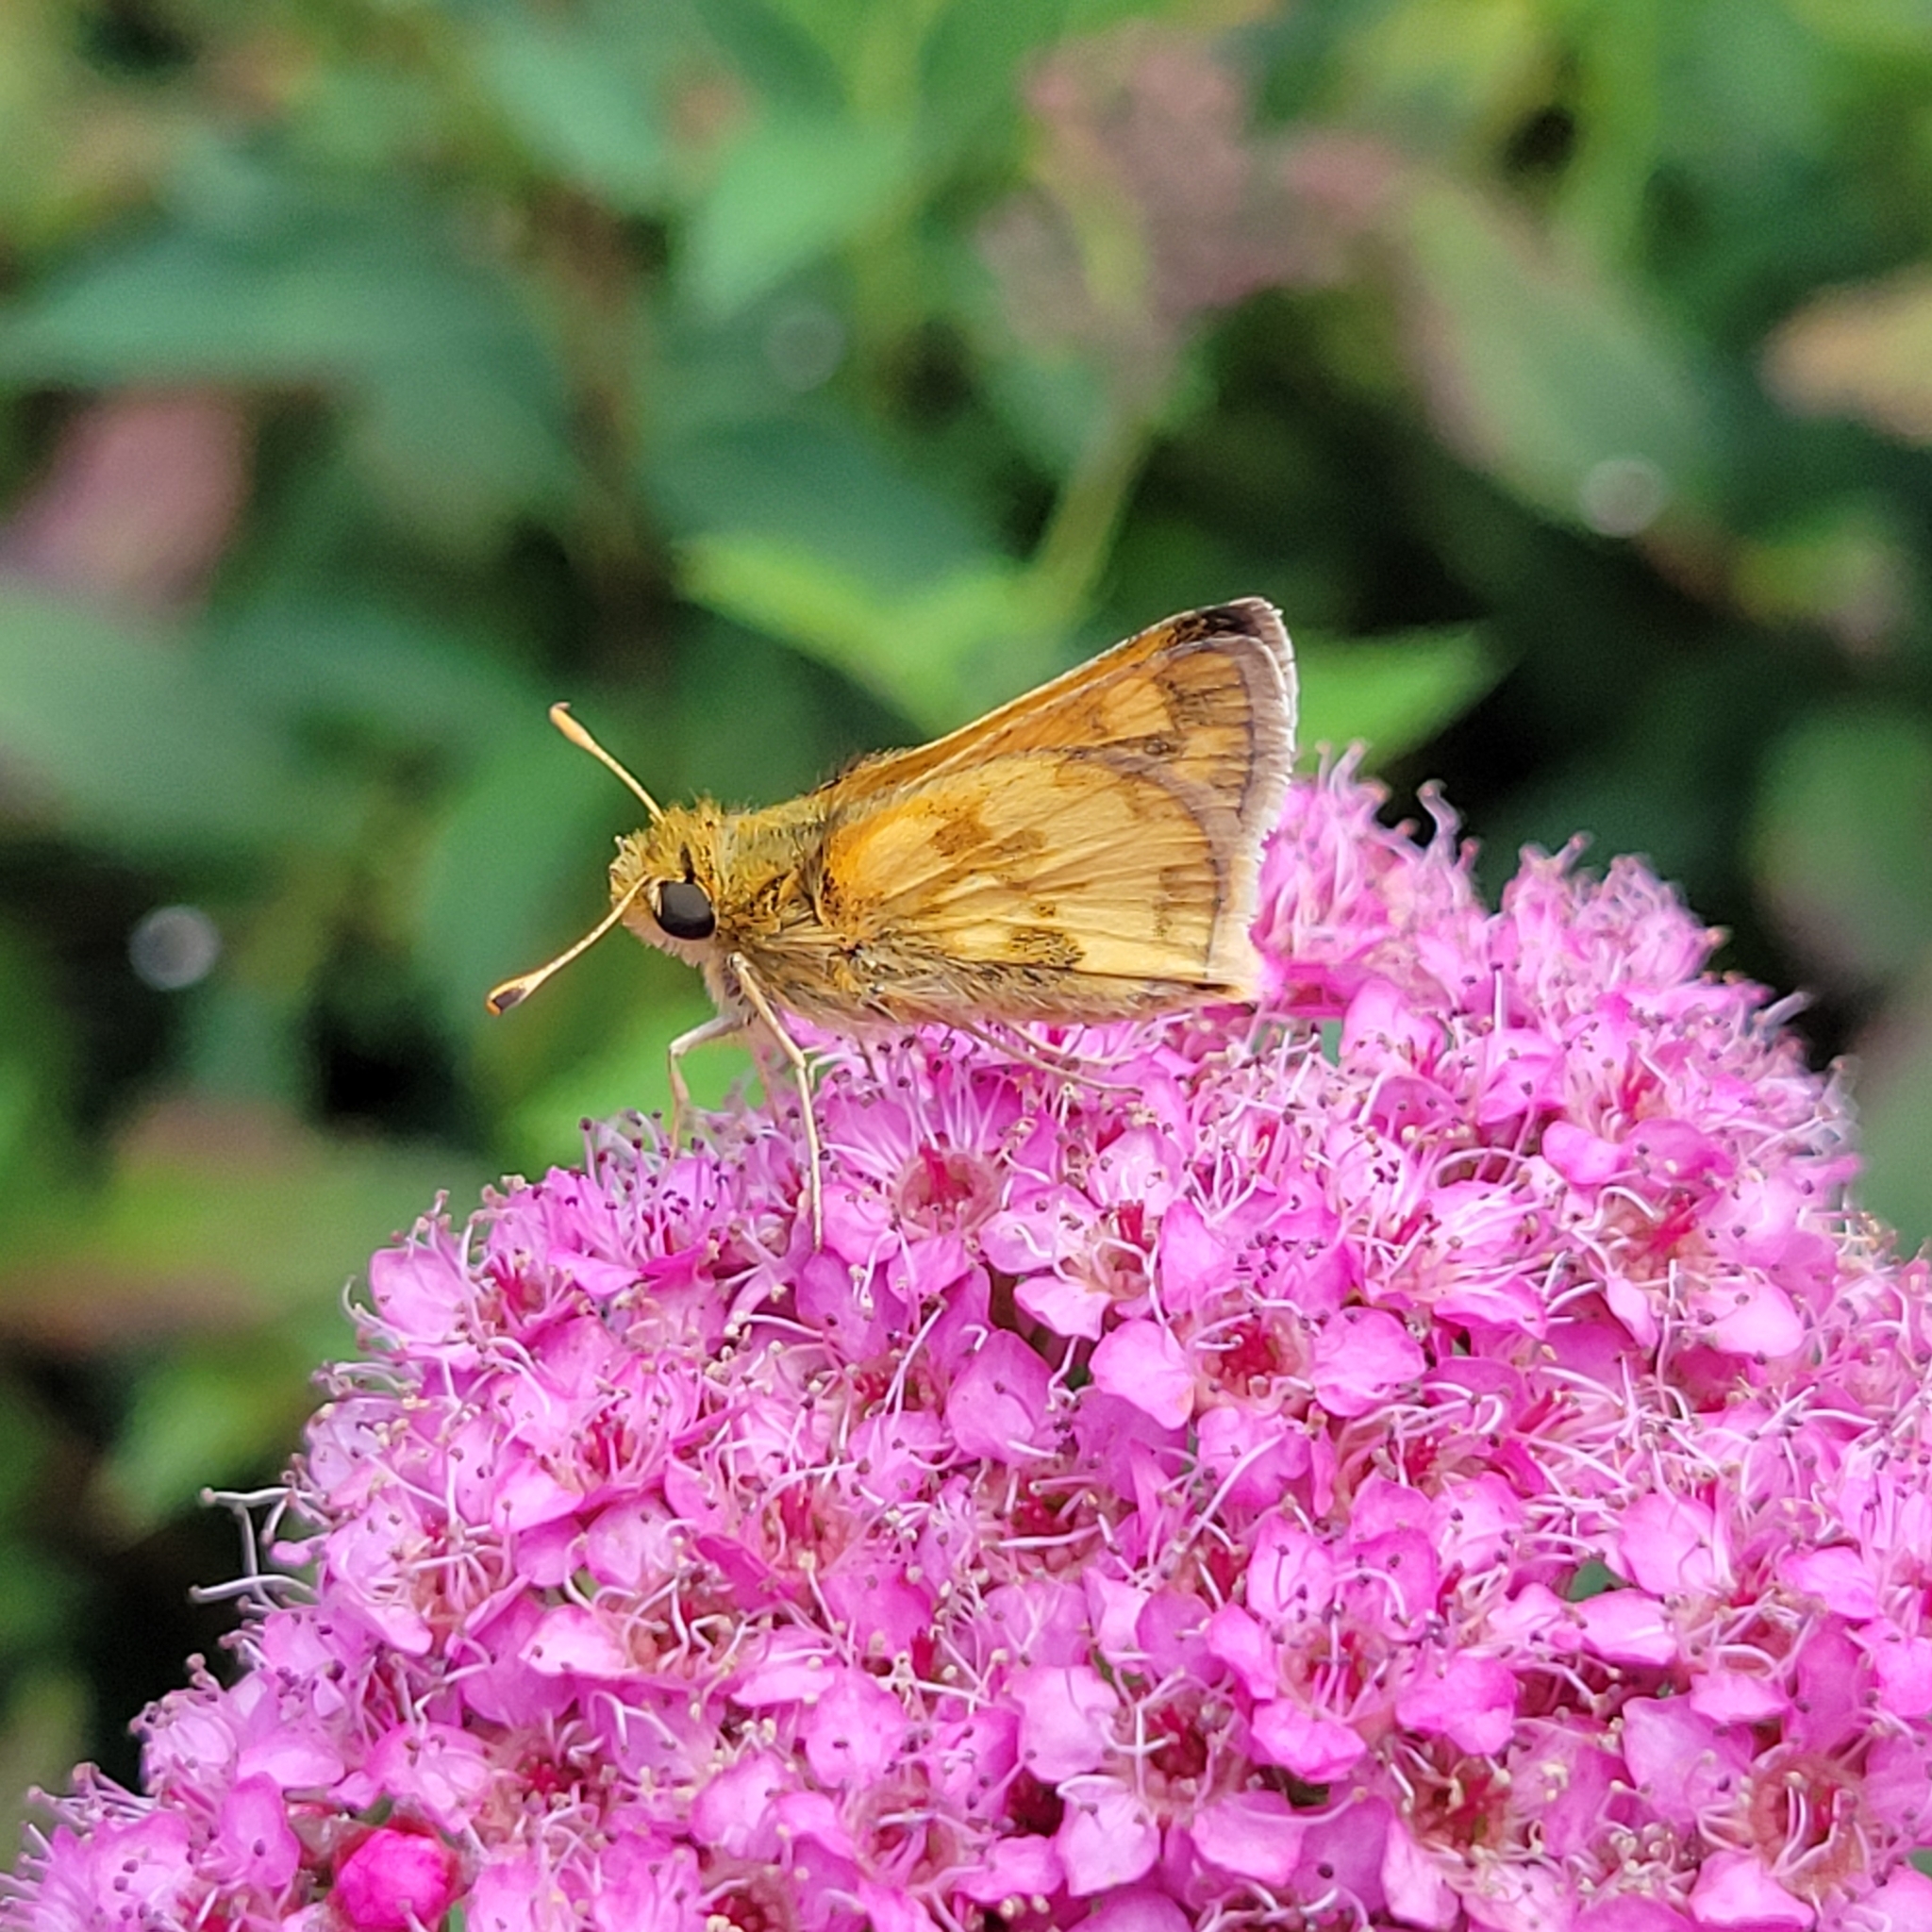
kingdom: Animalia
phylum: Arthropoda
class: Insecta
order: Lepidoptera
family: Hesperiidae
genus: Polites
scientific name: Polites coras
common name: Peck's skipper
